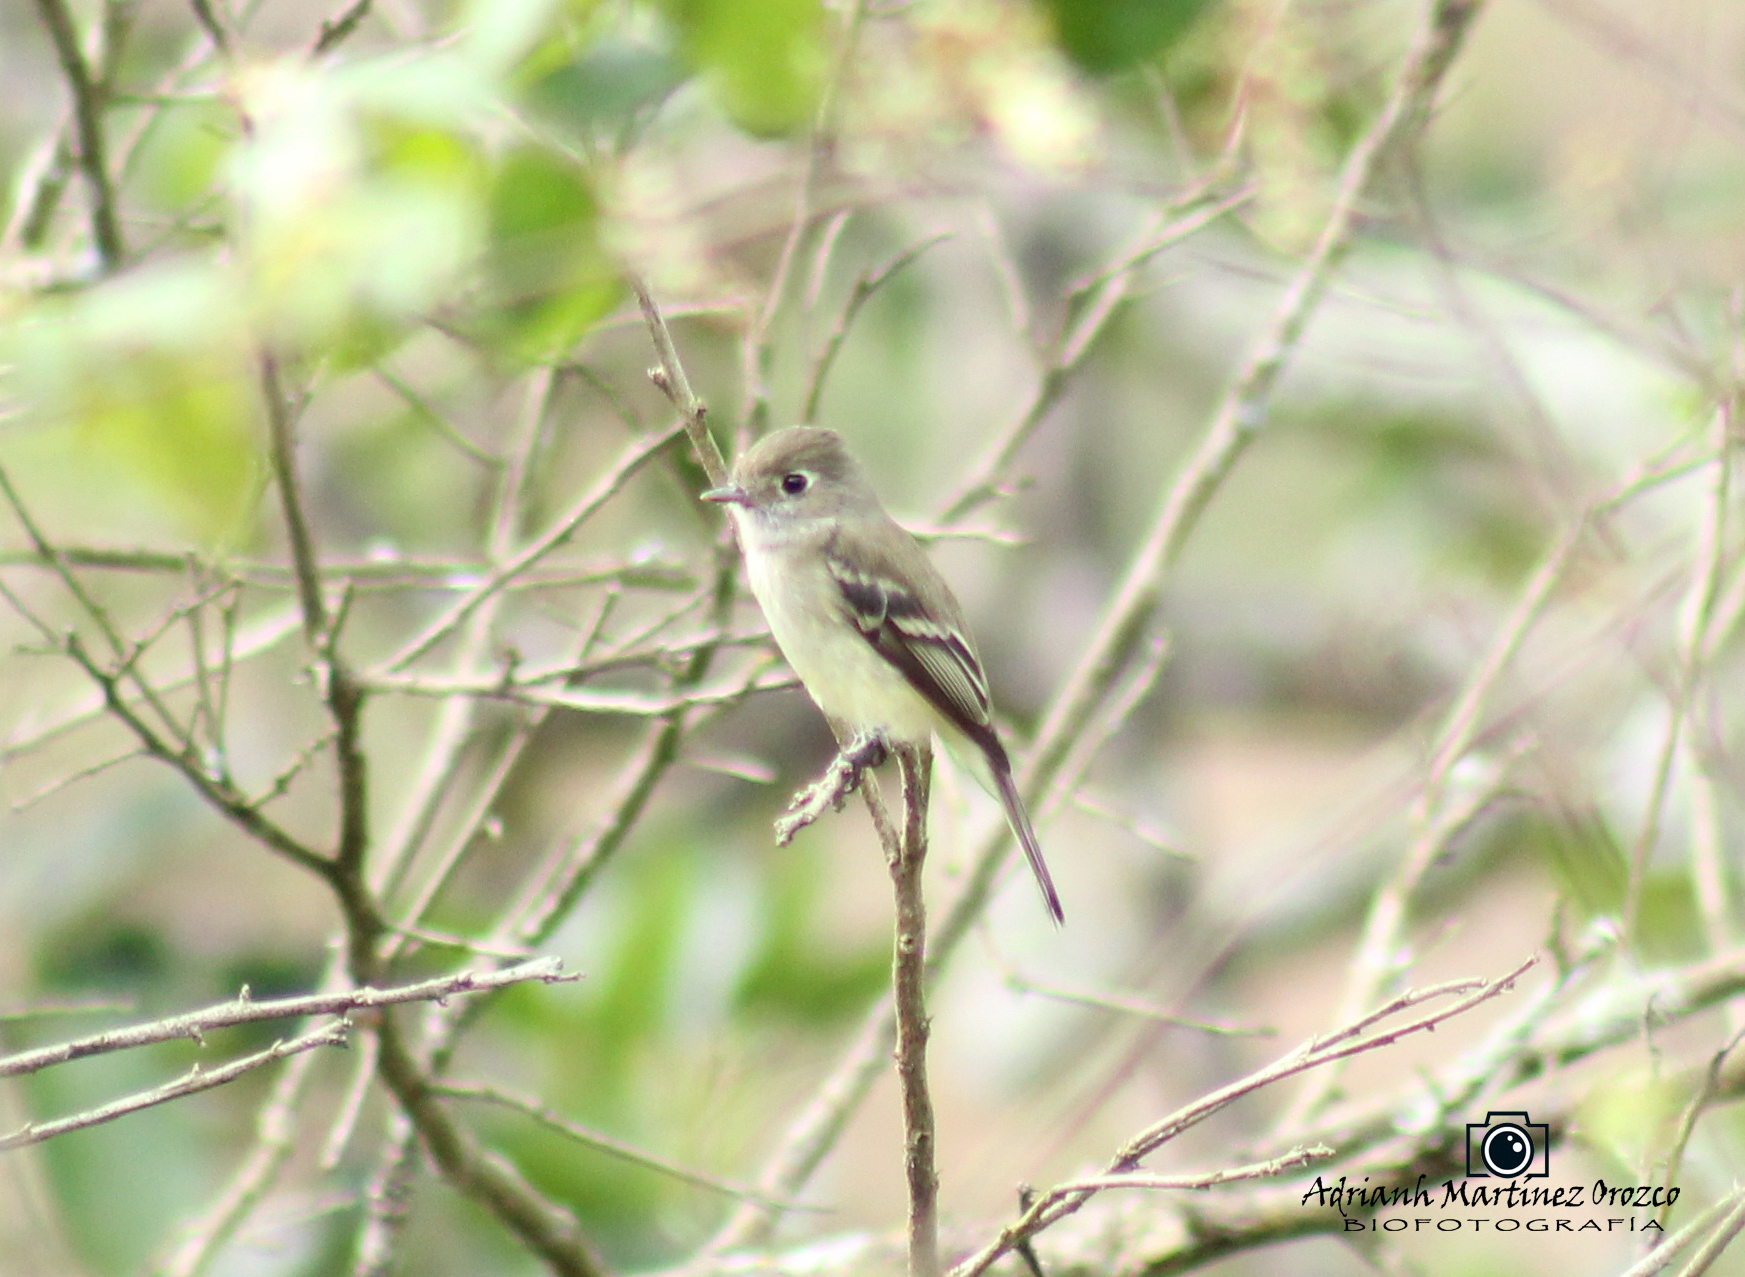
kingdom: Animalia
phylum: Chordata
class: Aves
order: Passeriformes
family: Tyrannidae
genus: Empidonax
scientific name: Empidonax minimus
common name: Least flycatcher
